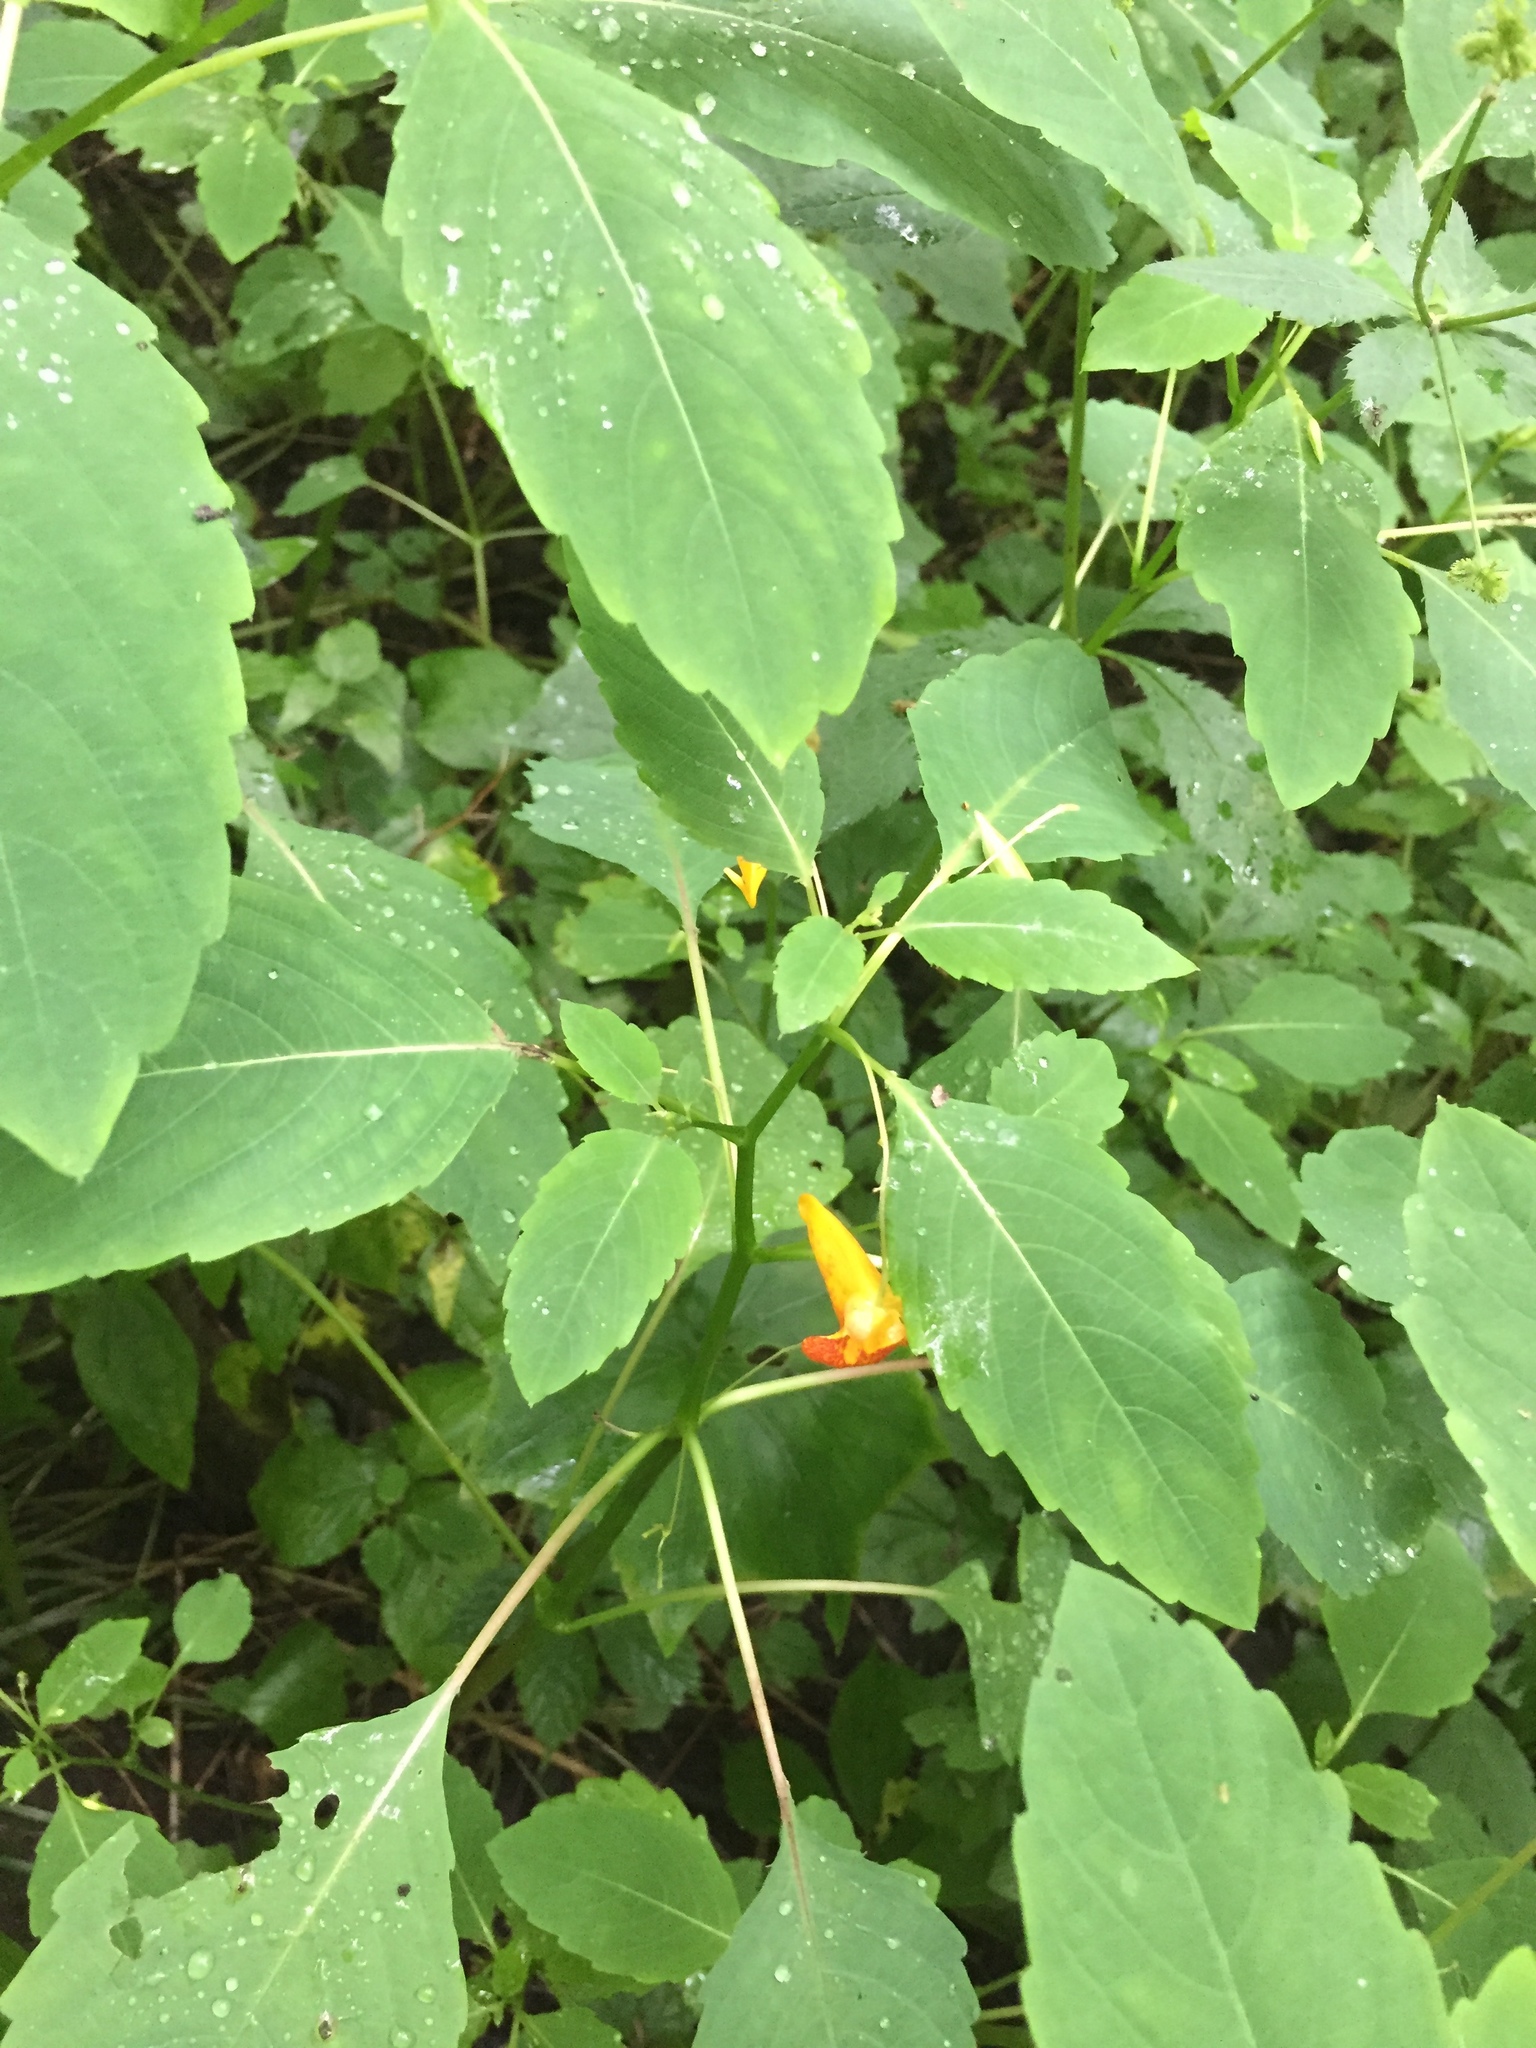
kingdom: Plantae
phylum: Tracheophyta
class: Magnoliopsida
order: Ericales
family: Balsaminaceae
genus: Impatiens
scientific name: Impatiens capensis
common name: Orange balsam
